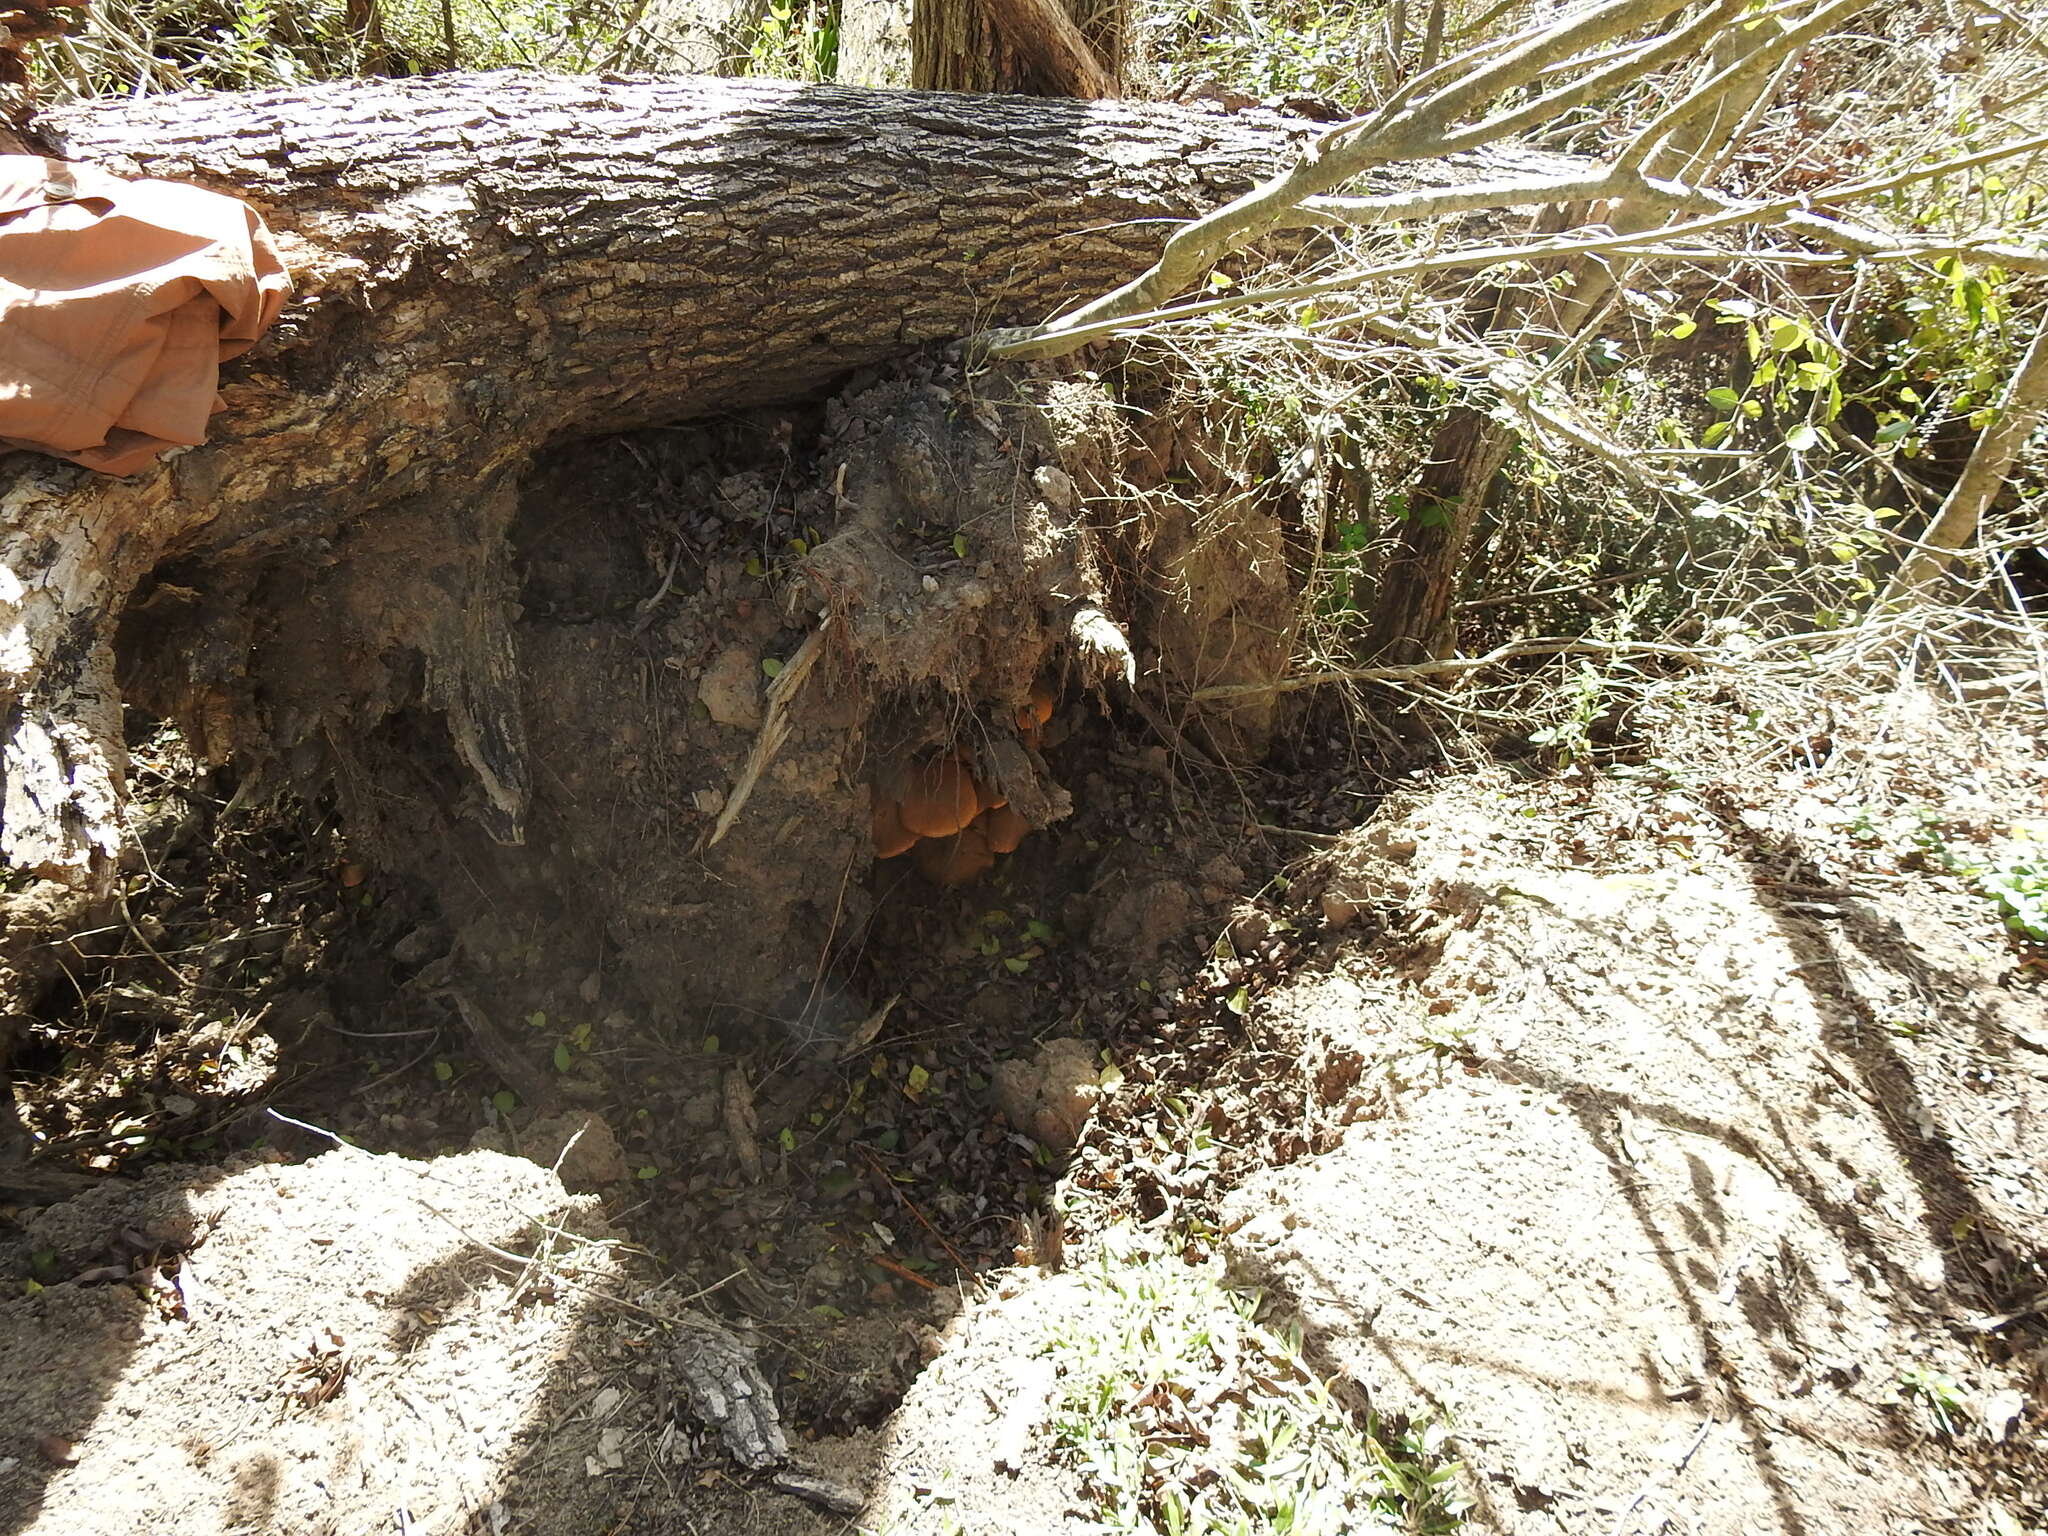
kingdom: Fungi
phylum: Basidiomycota
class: Agaricomycetes
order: Agaricales
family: Hymenogastraceae
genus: Gymnopilus
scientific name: Gymnopilus junonius
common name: Spectacular rustgill
